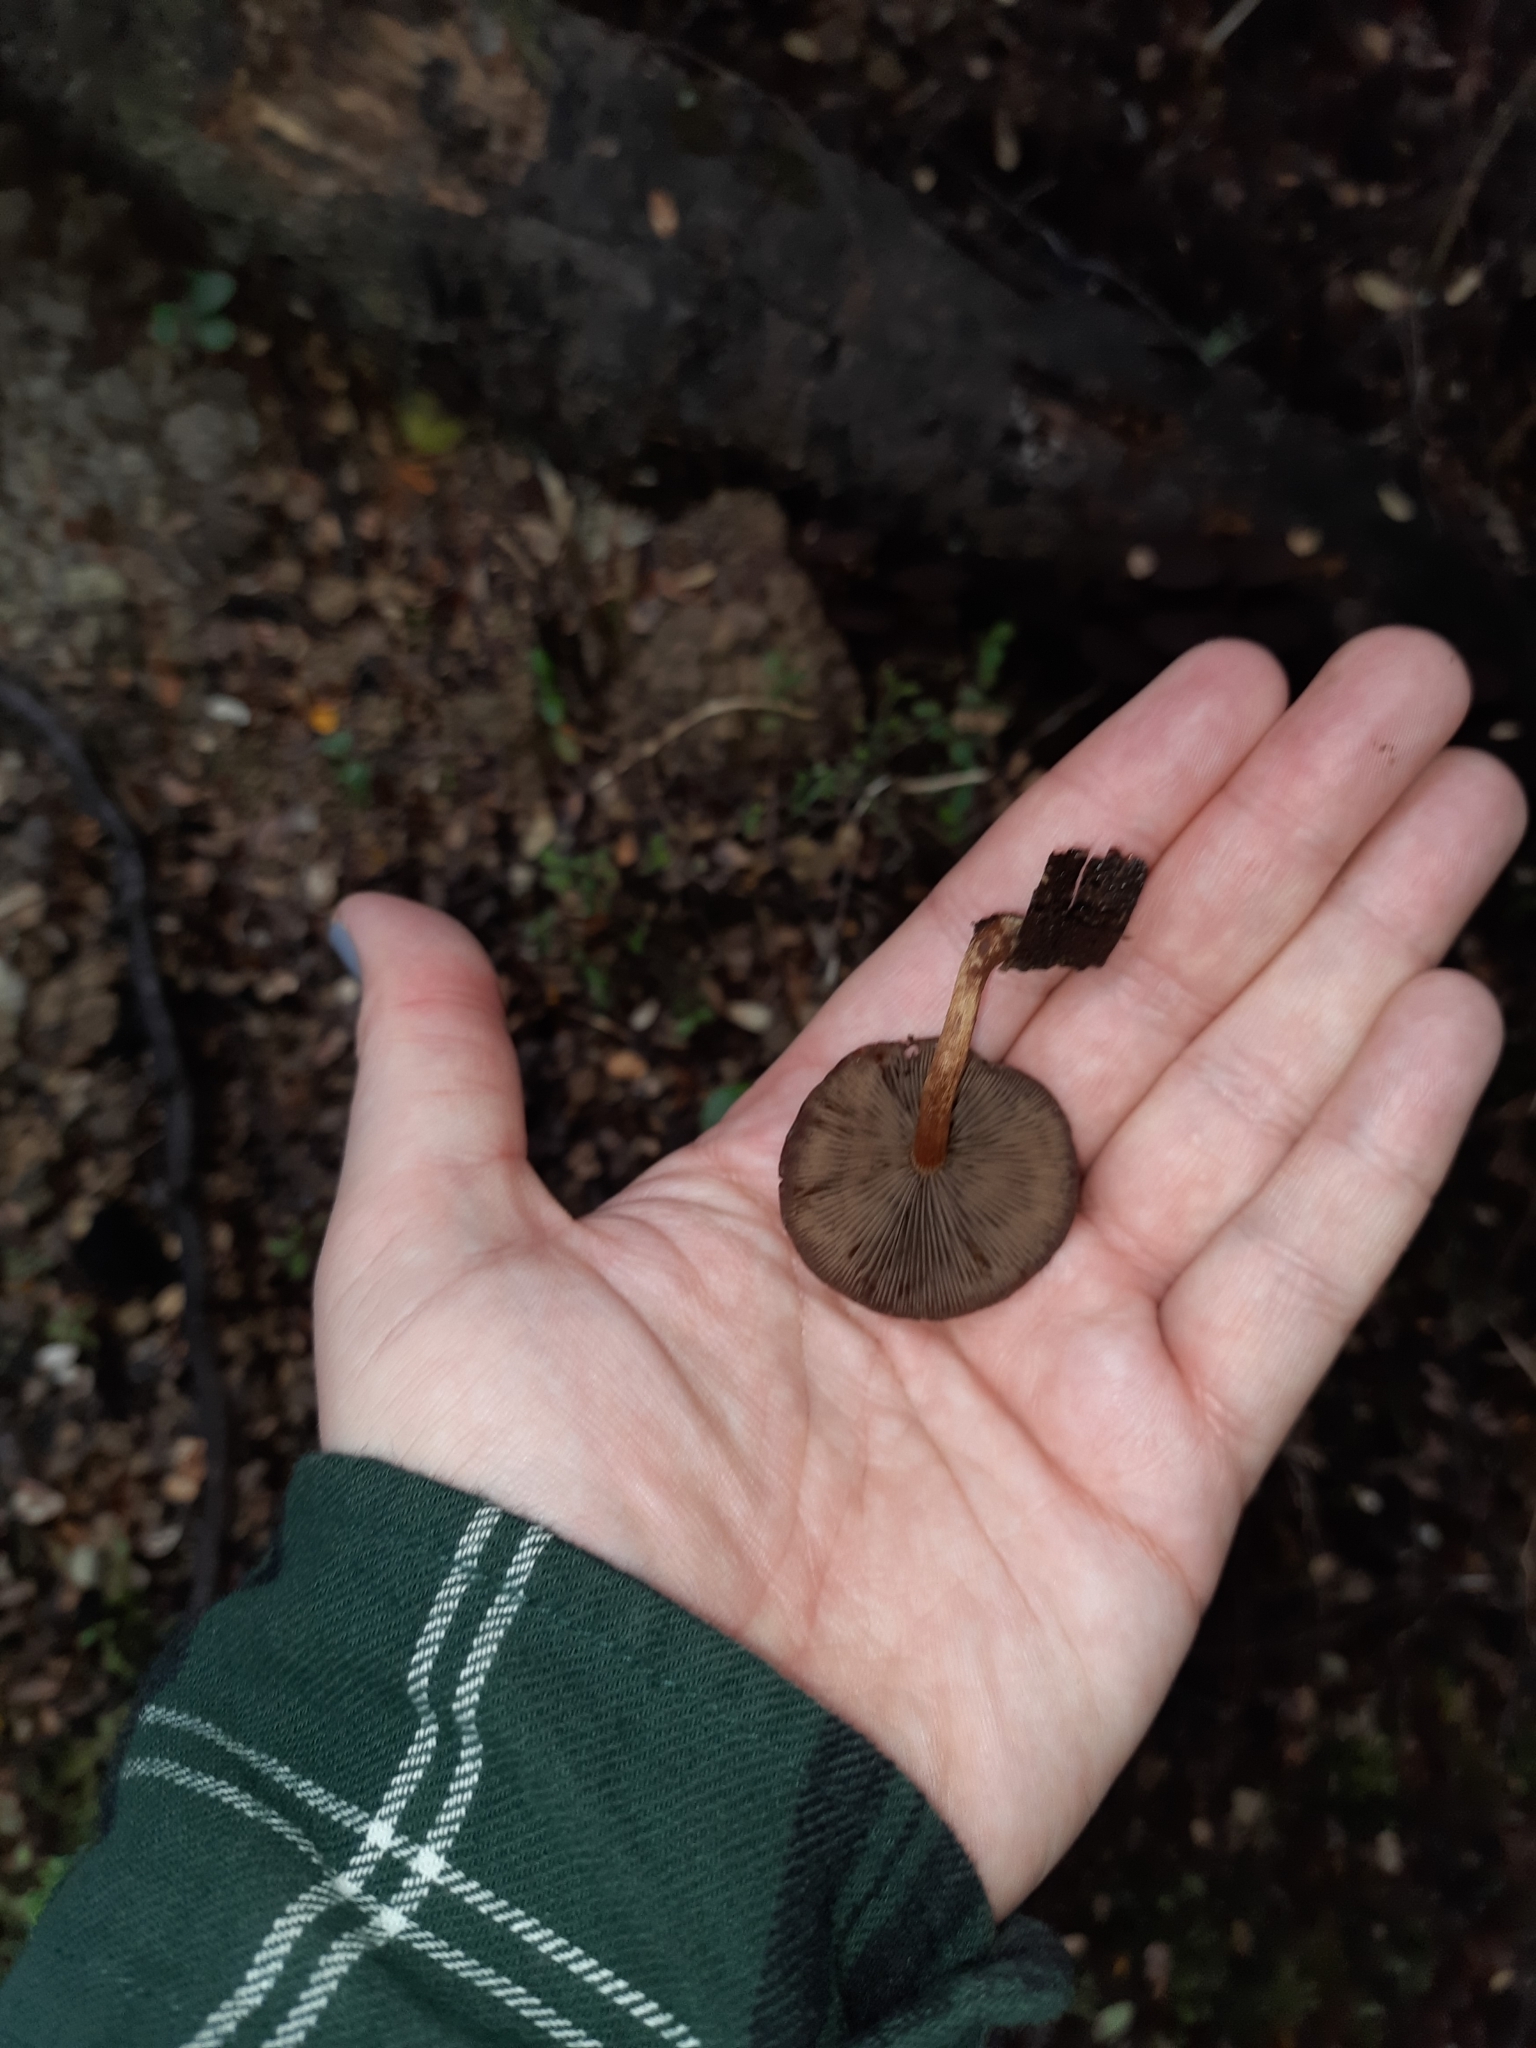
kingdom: Fungi
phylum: Basidiomycota
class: Agaricomycetes
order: Agaricales
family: Strophariaceae
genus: Hypholoma
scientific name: Hypholoma brunneum
